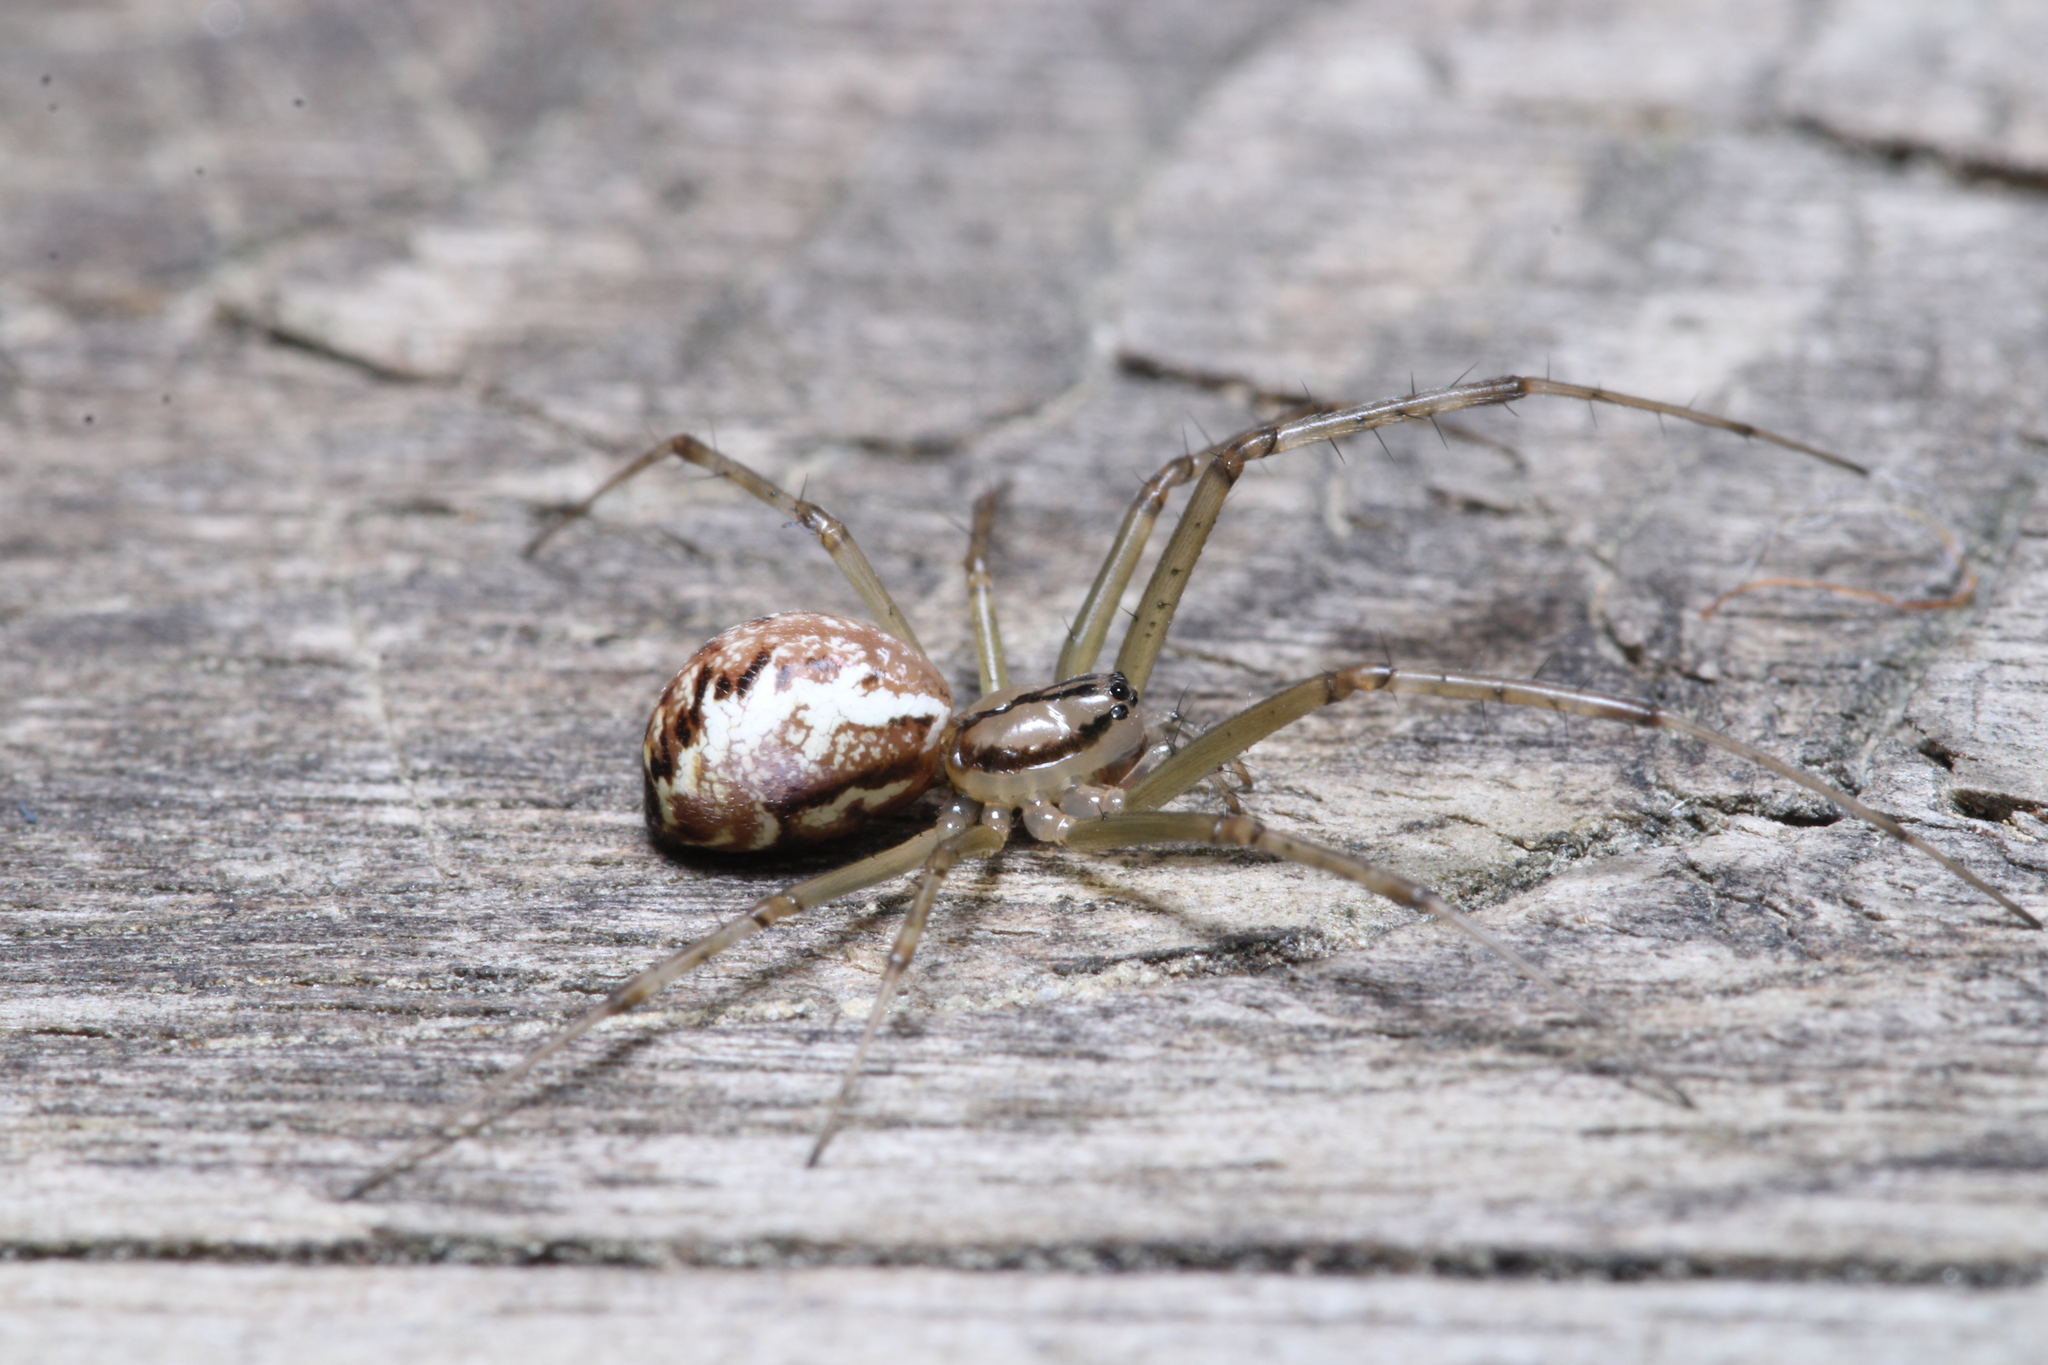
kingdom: Animalia
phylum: Arthropoda
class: Arachnida
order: Araneae
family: Linyphiidae
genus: Linyphia
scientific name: Linyphia triangularis
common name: Money spider
